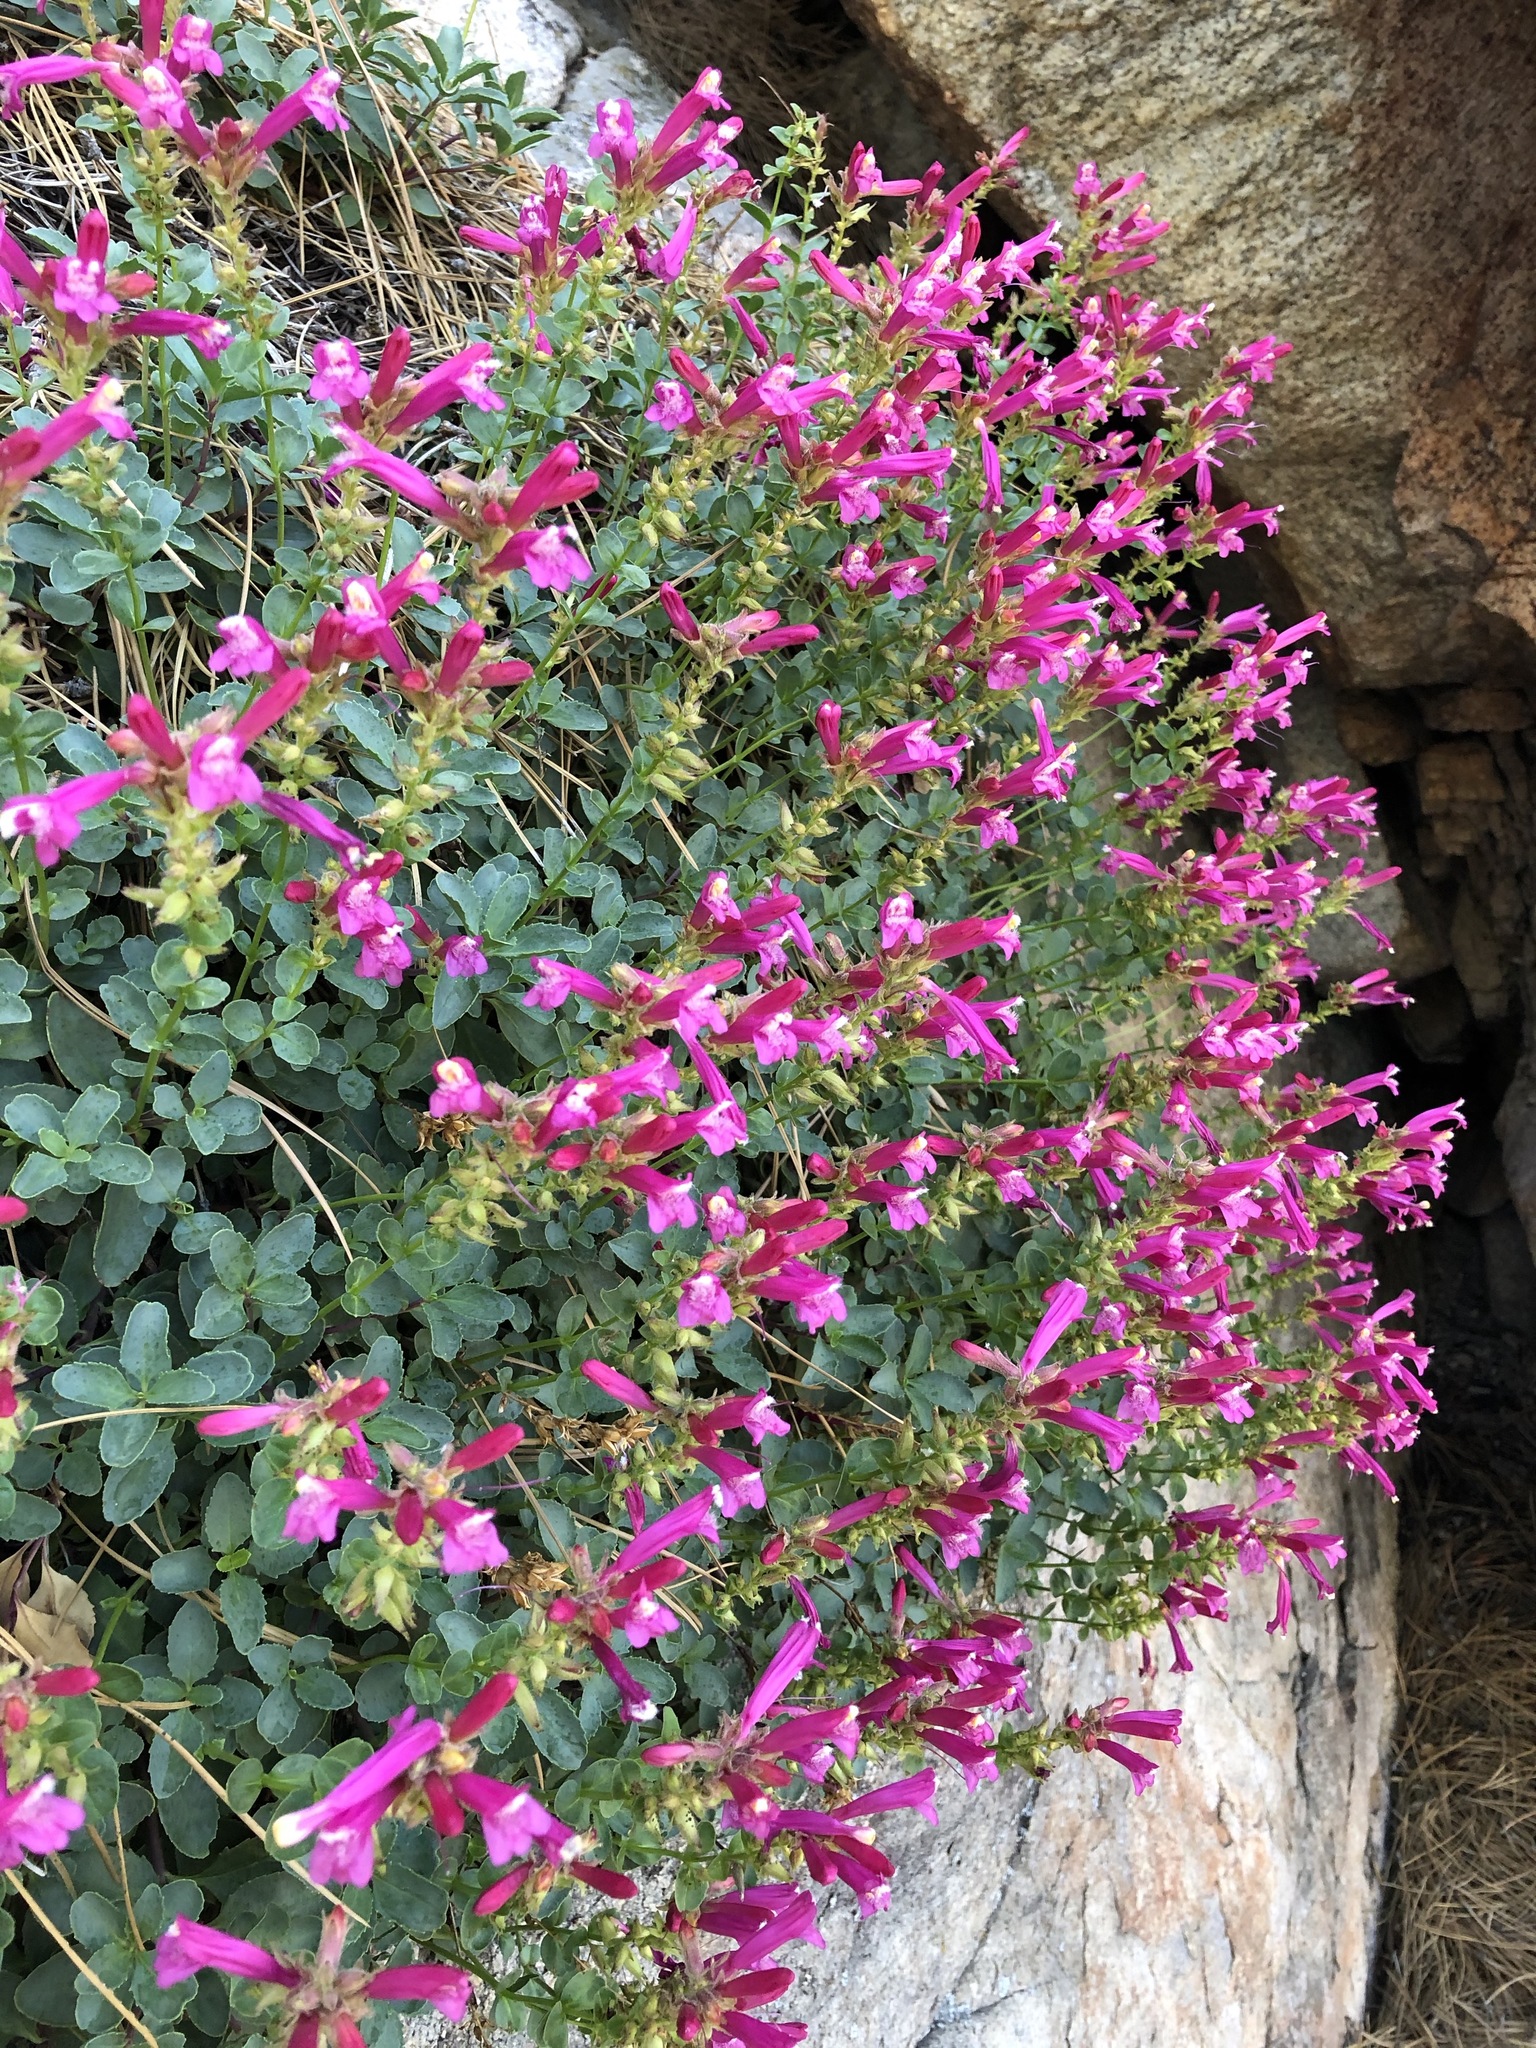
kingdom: Plantae
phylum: Tracheophyta
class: Magnoliopsida
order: Lamiales
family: Plantaginaceae
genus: Penstemon
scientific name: Penstemon newberryi
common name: Mountain-pride
